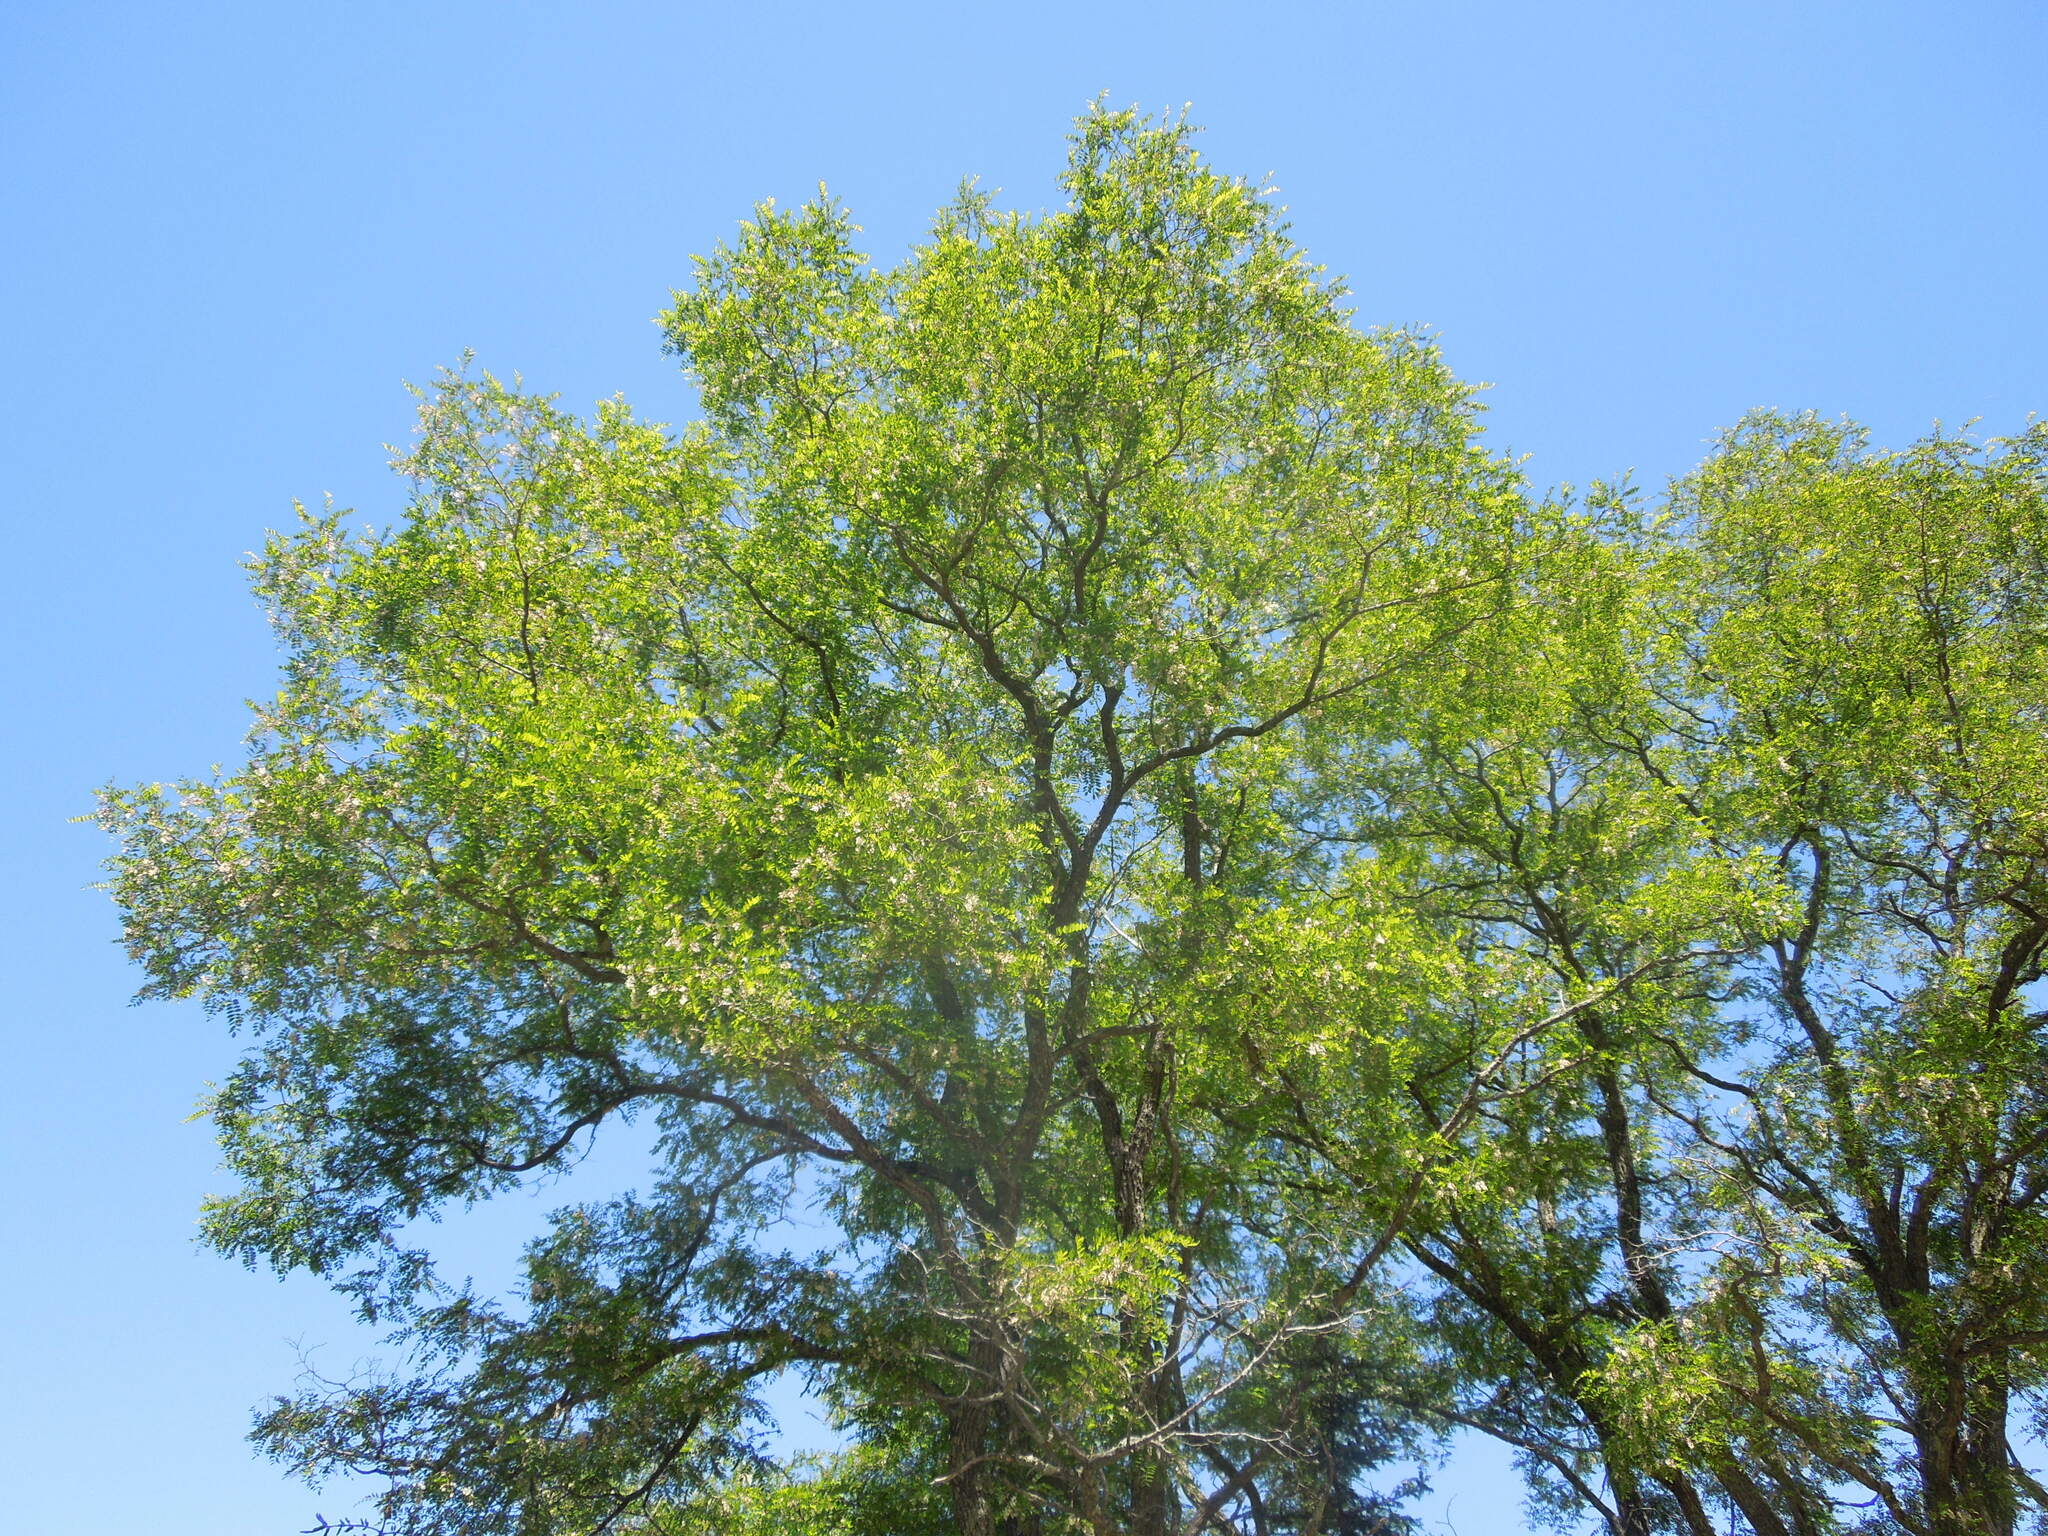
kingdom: Plantae
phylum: Tracheophyta
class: Magnoliopsida
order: Fabales
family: Fabaceae
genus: Robinia
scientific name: Robinia pseudoacacia
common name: Black locust
